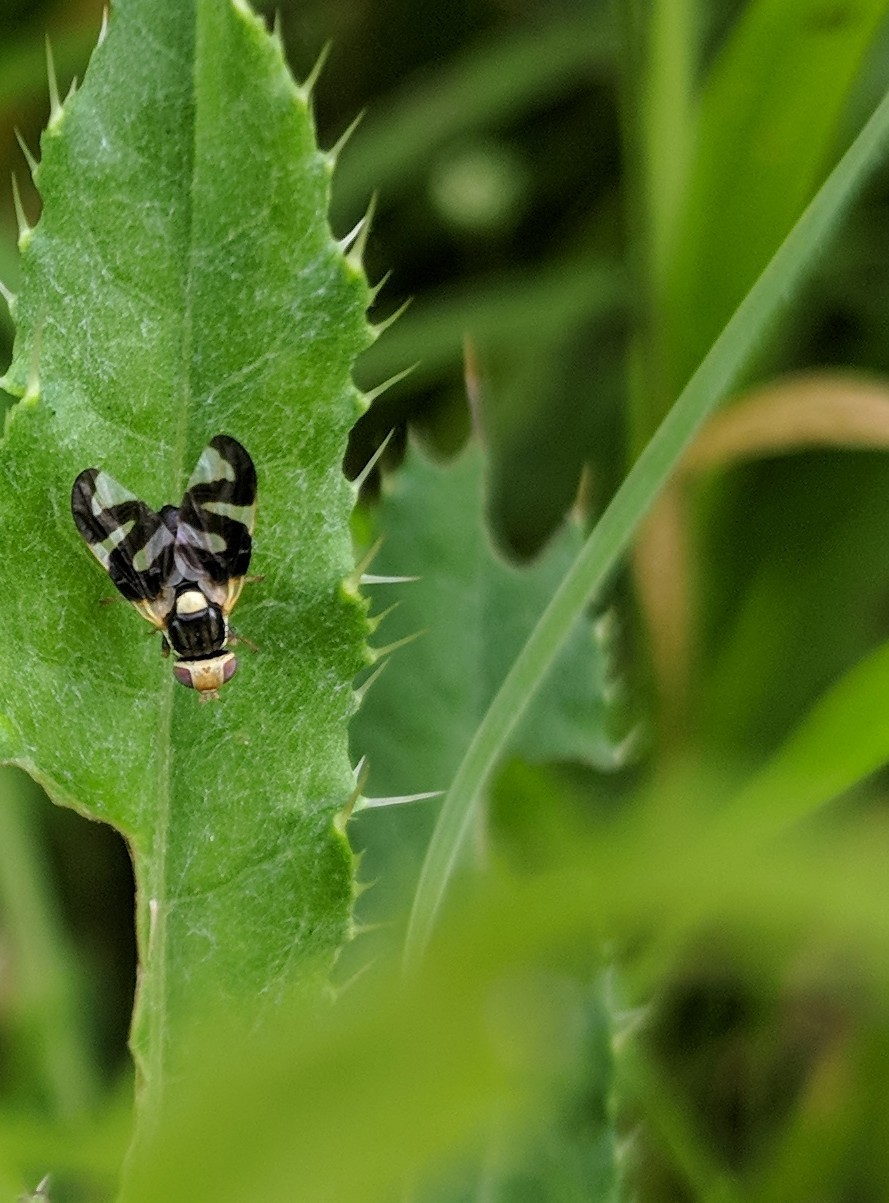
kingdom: Animalia
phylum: Arthropoda
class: Insecta
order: Diptera
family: Tephritidae
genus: Urophora
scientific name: Urophora cardui
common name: Fruit fly
